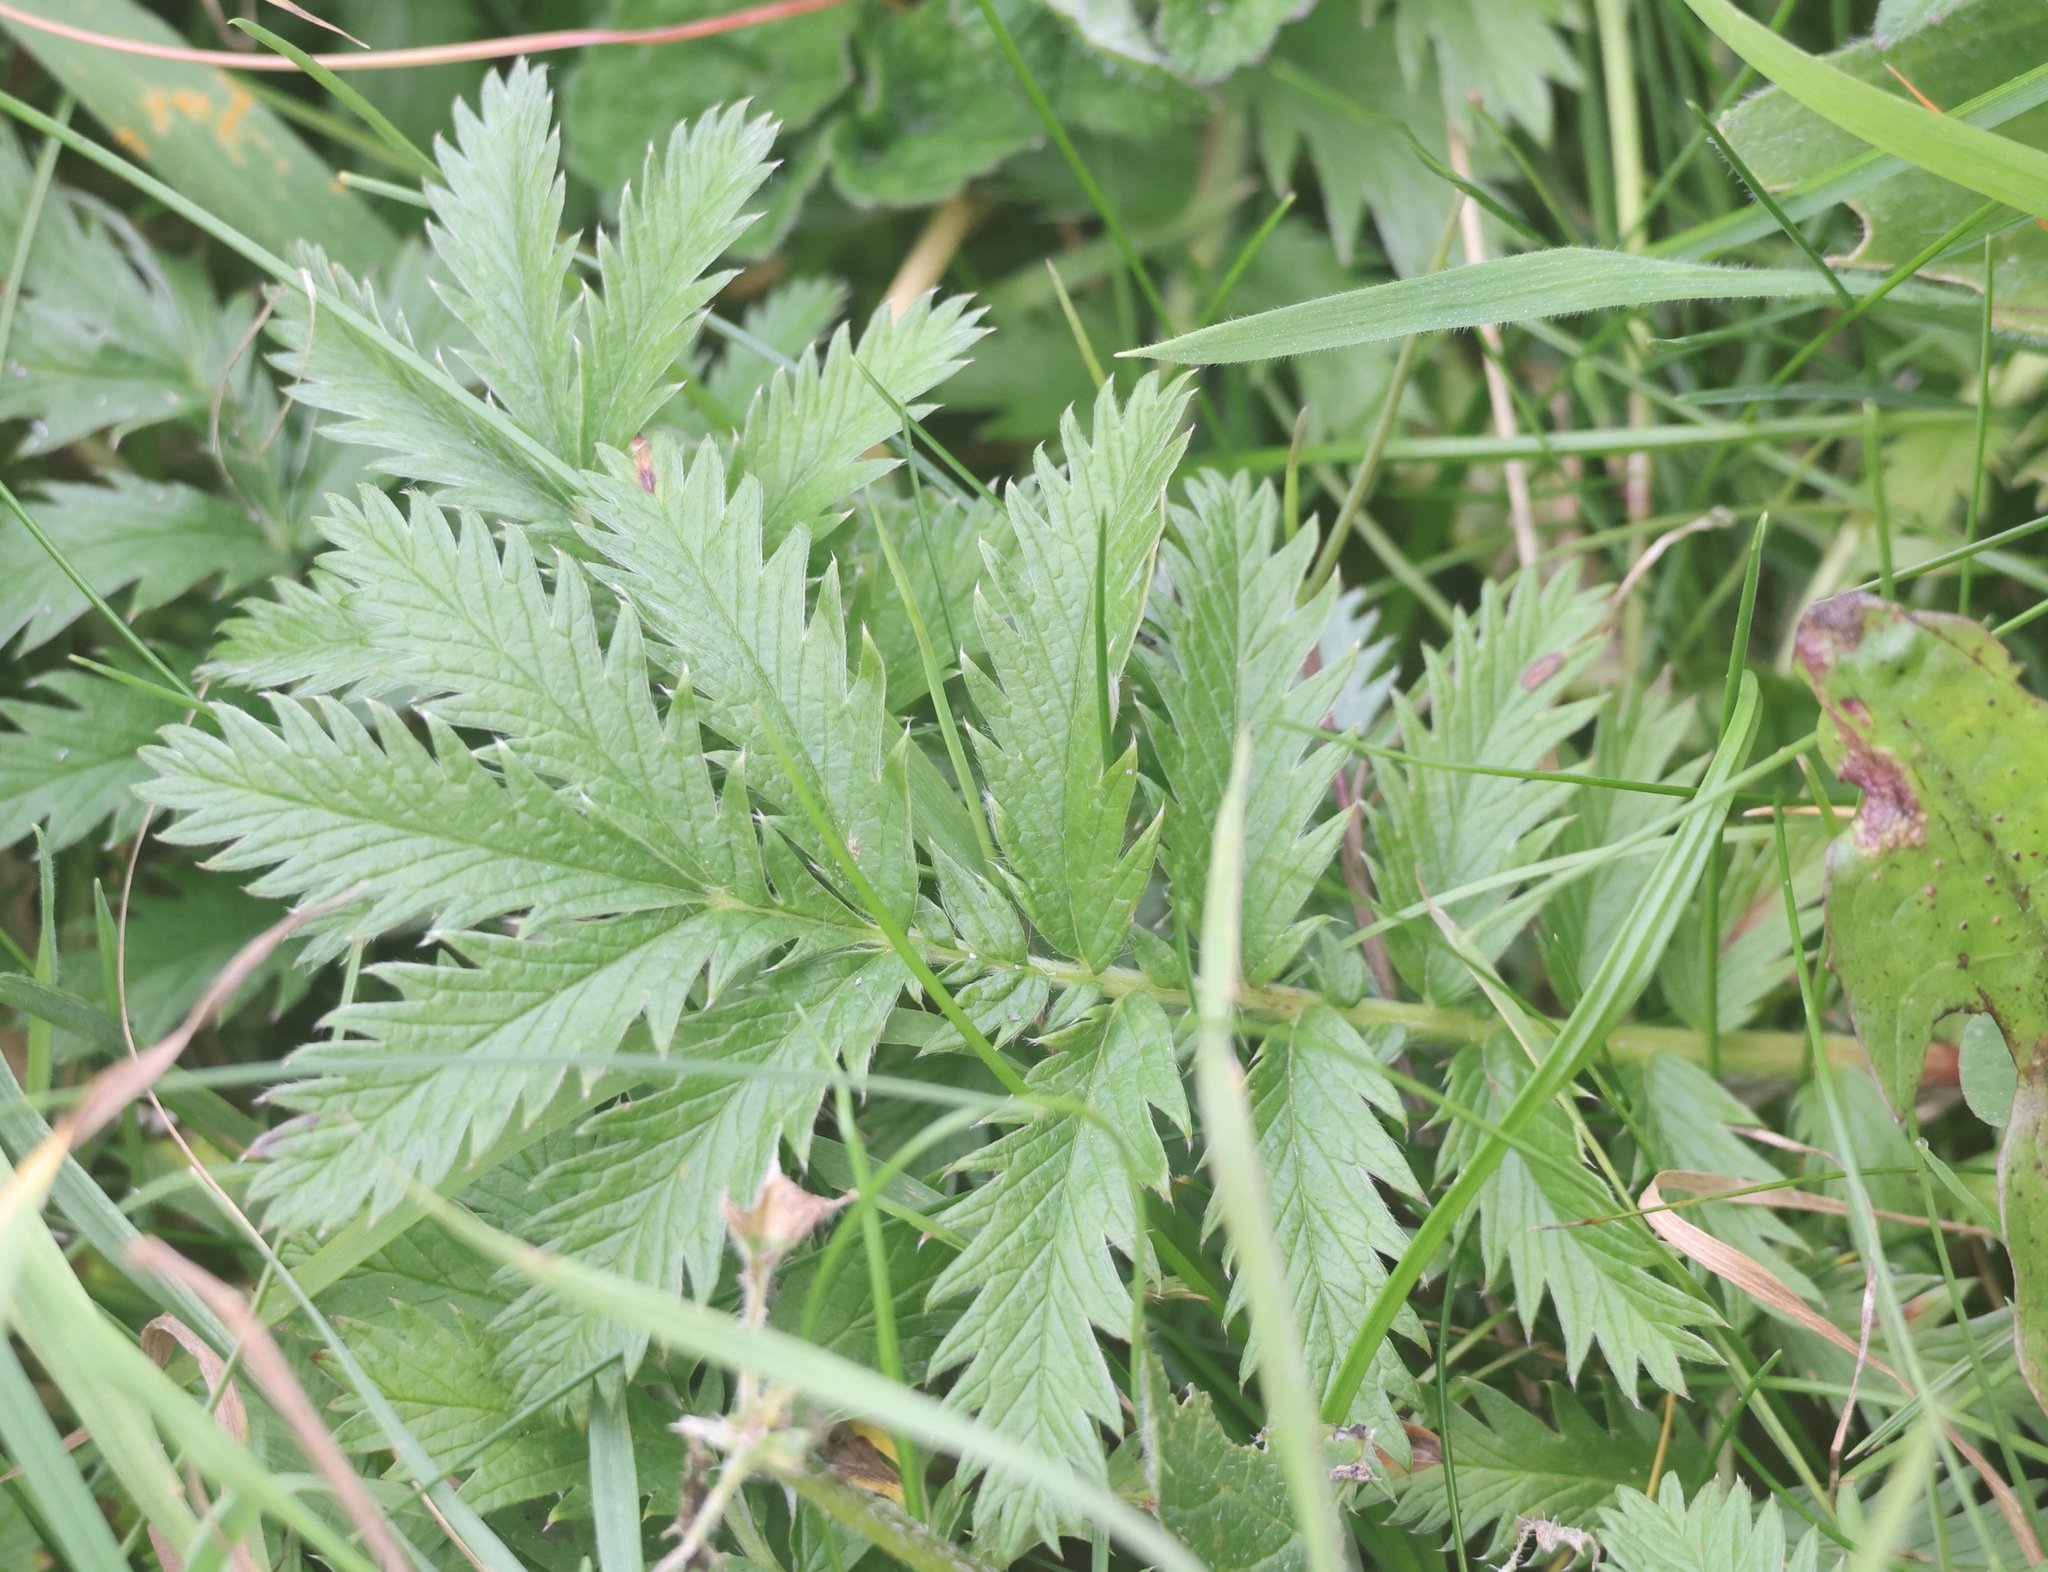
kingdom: Plantae
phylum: Tracheophyta
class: Magnoliopsida
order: Rosales
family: Rosaceae
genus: Argentina
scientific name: Argentina anserina
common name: Common silverweed
